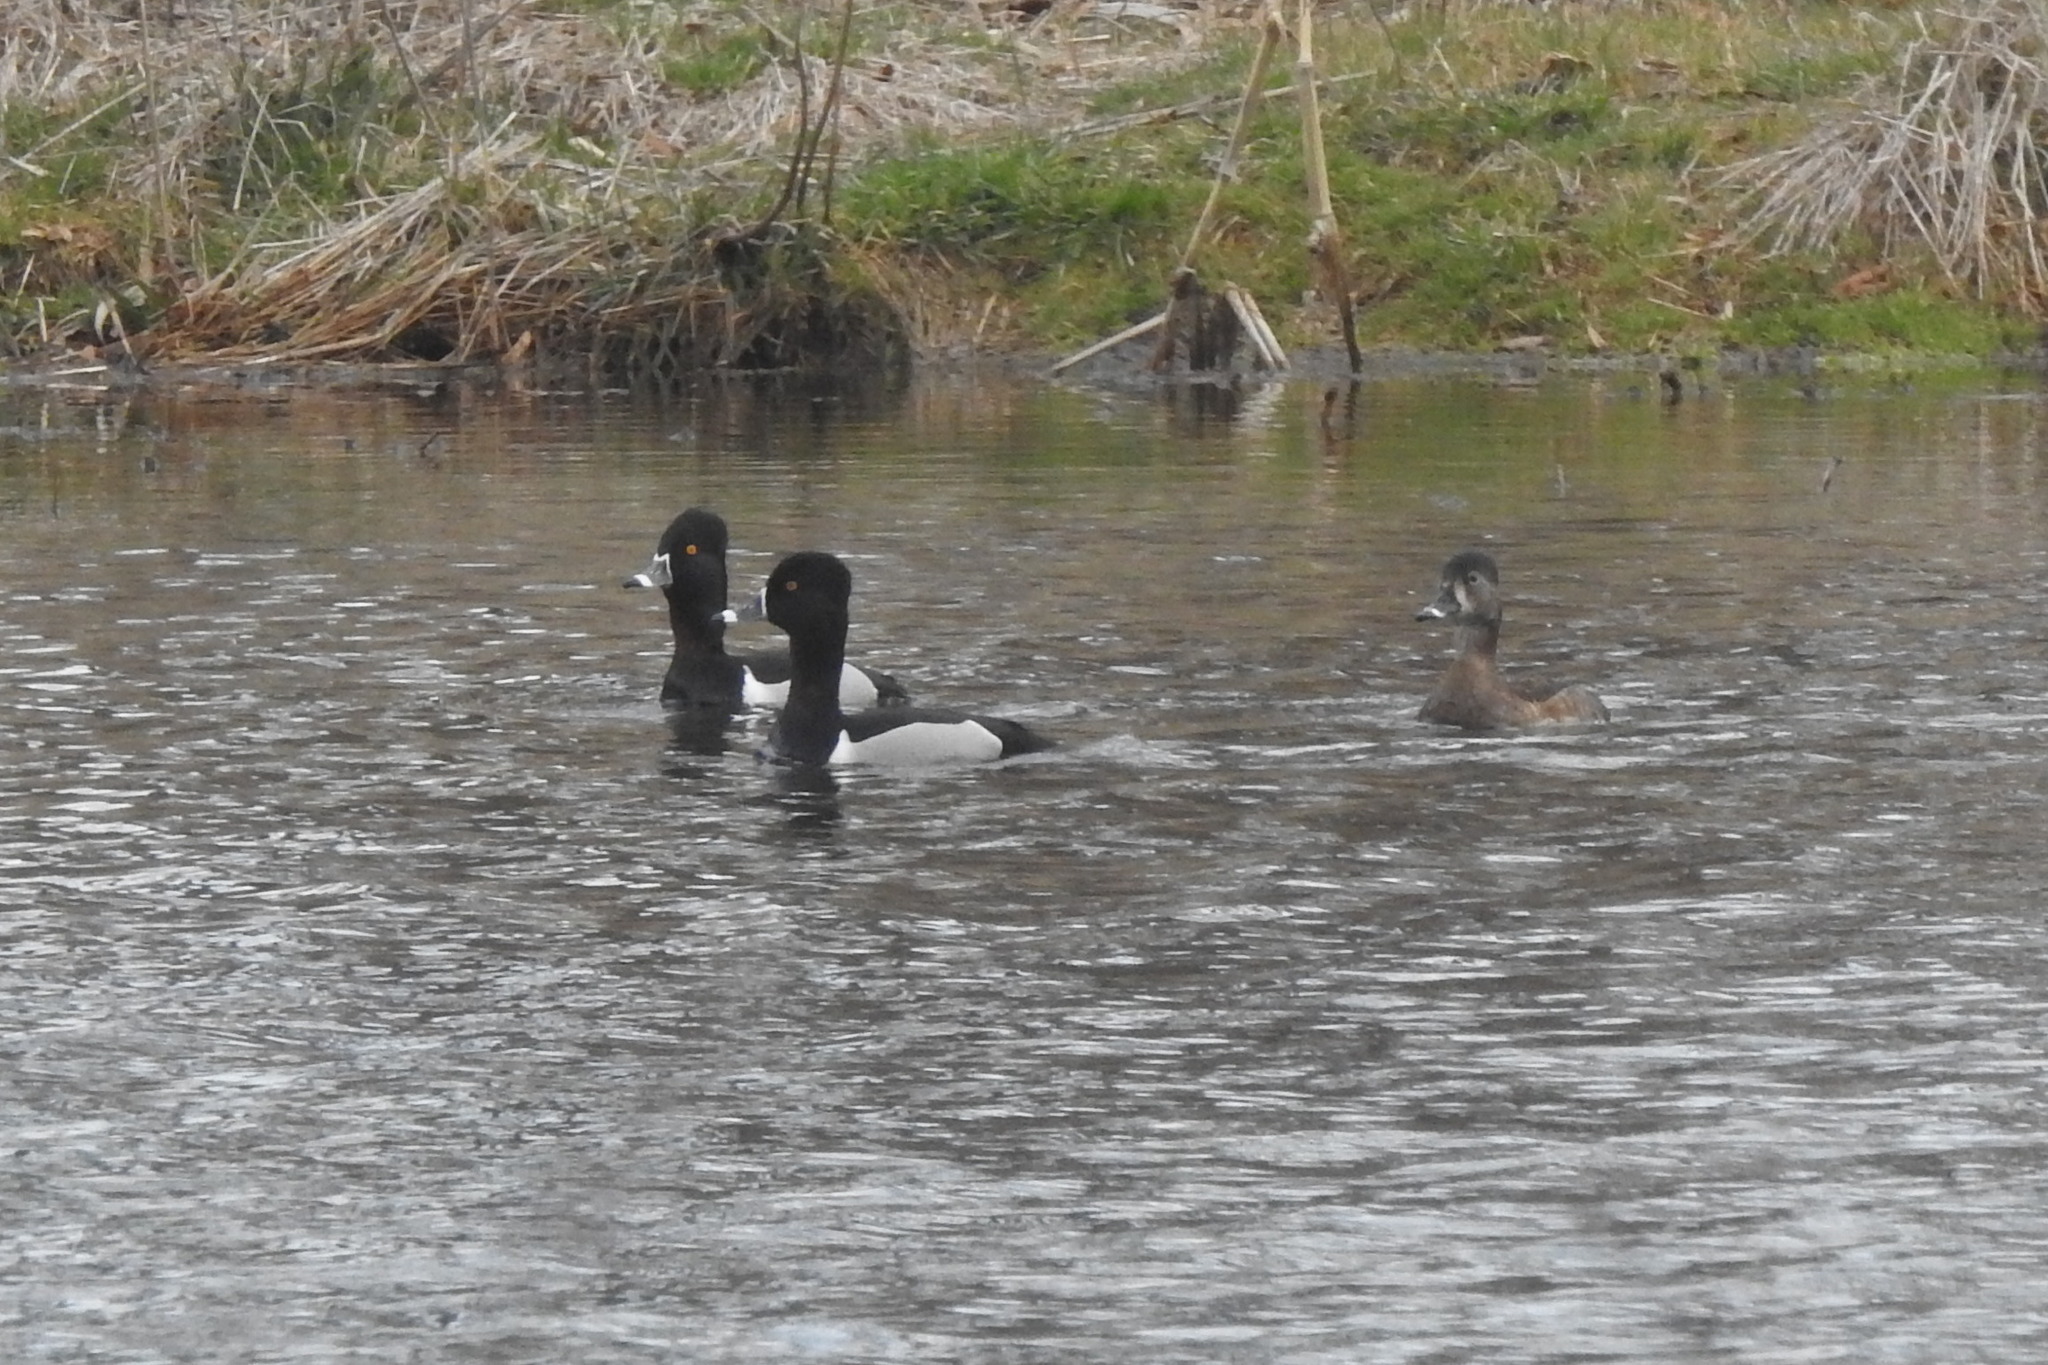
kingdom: Animalia
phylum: Chordata
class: Aves
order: Anseriformes
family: Anatidae
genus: Aythya
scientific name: Aythya collaris
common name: Ring-necked duck
